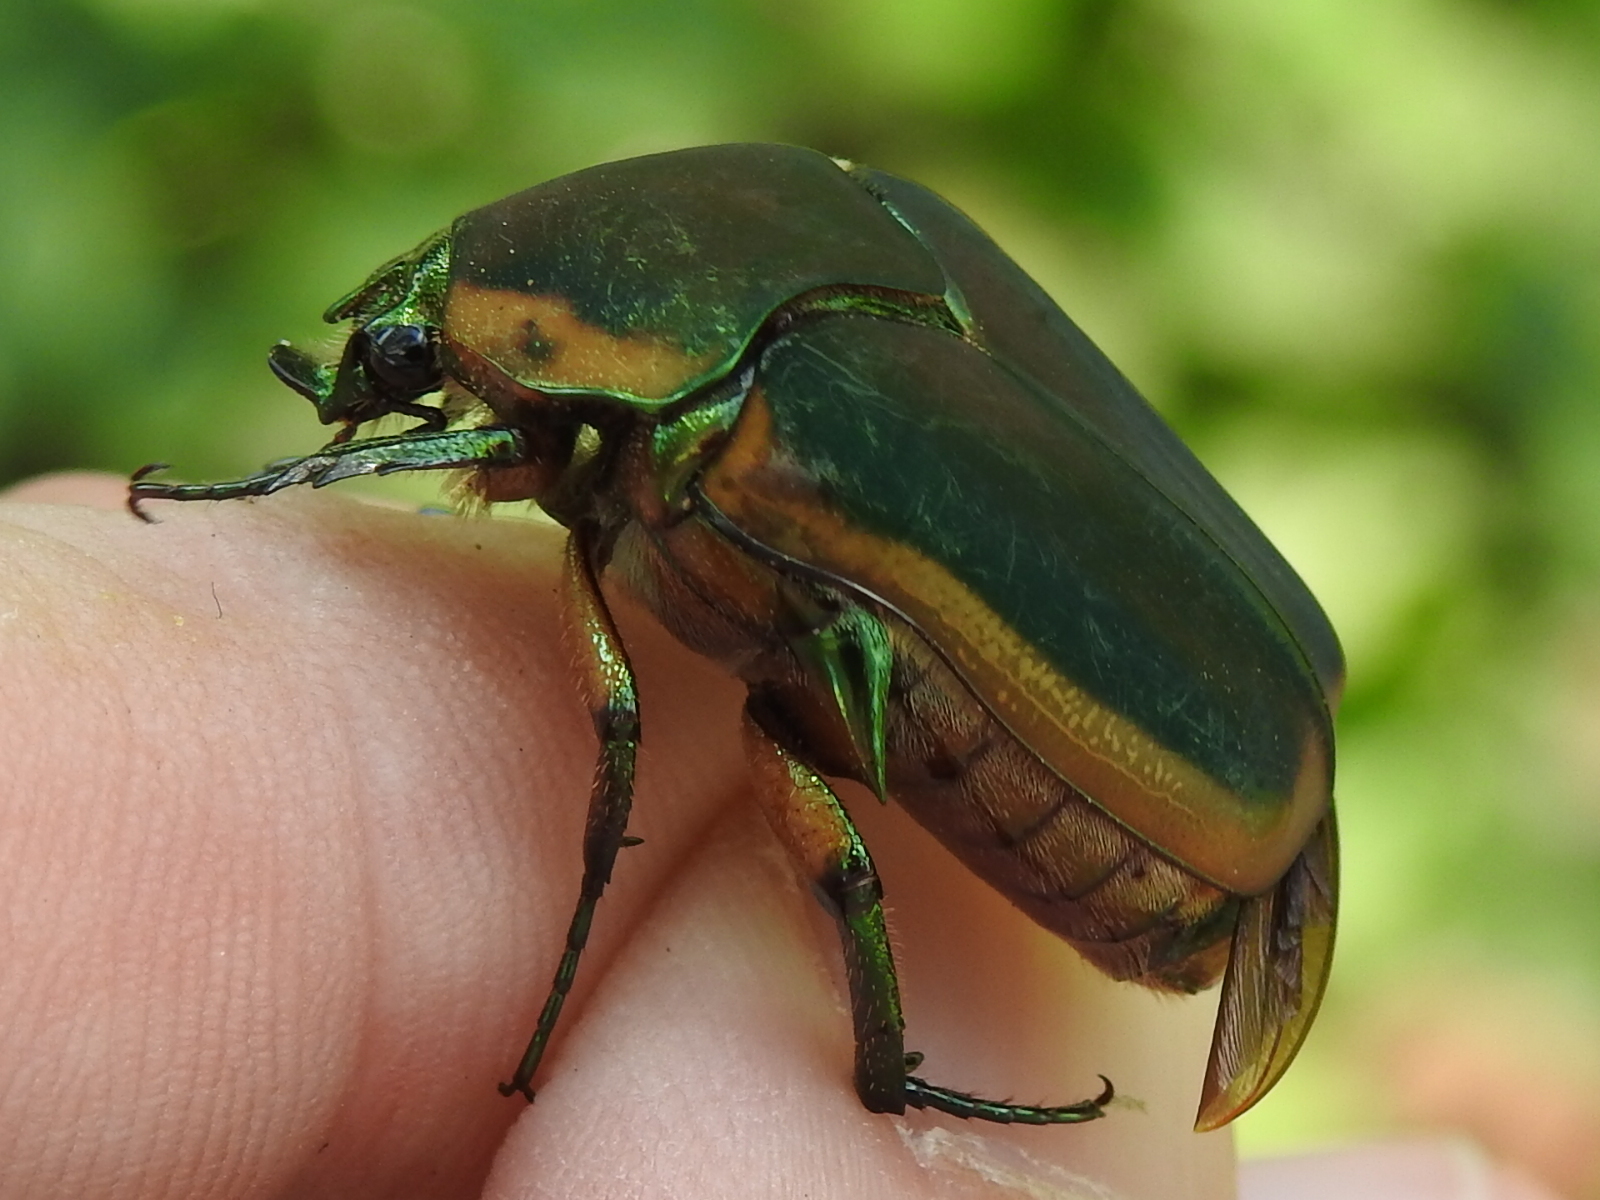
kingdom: Animalia
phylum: Arthropoda
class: Insecta
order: Coleoptera
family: Scarabaeidae
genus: Cotinis
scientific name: Cotinis nitida
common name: Common green june beetle
